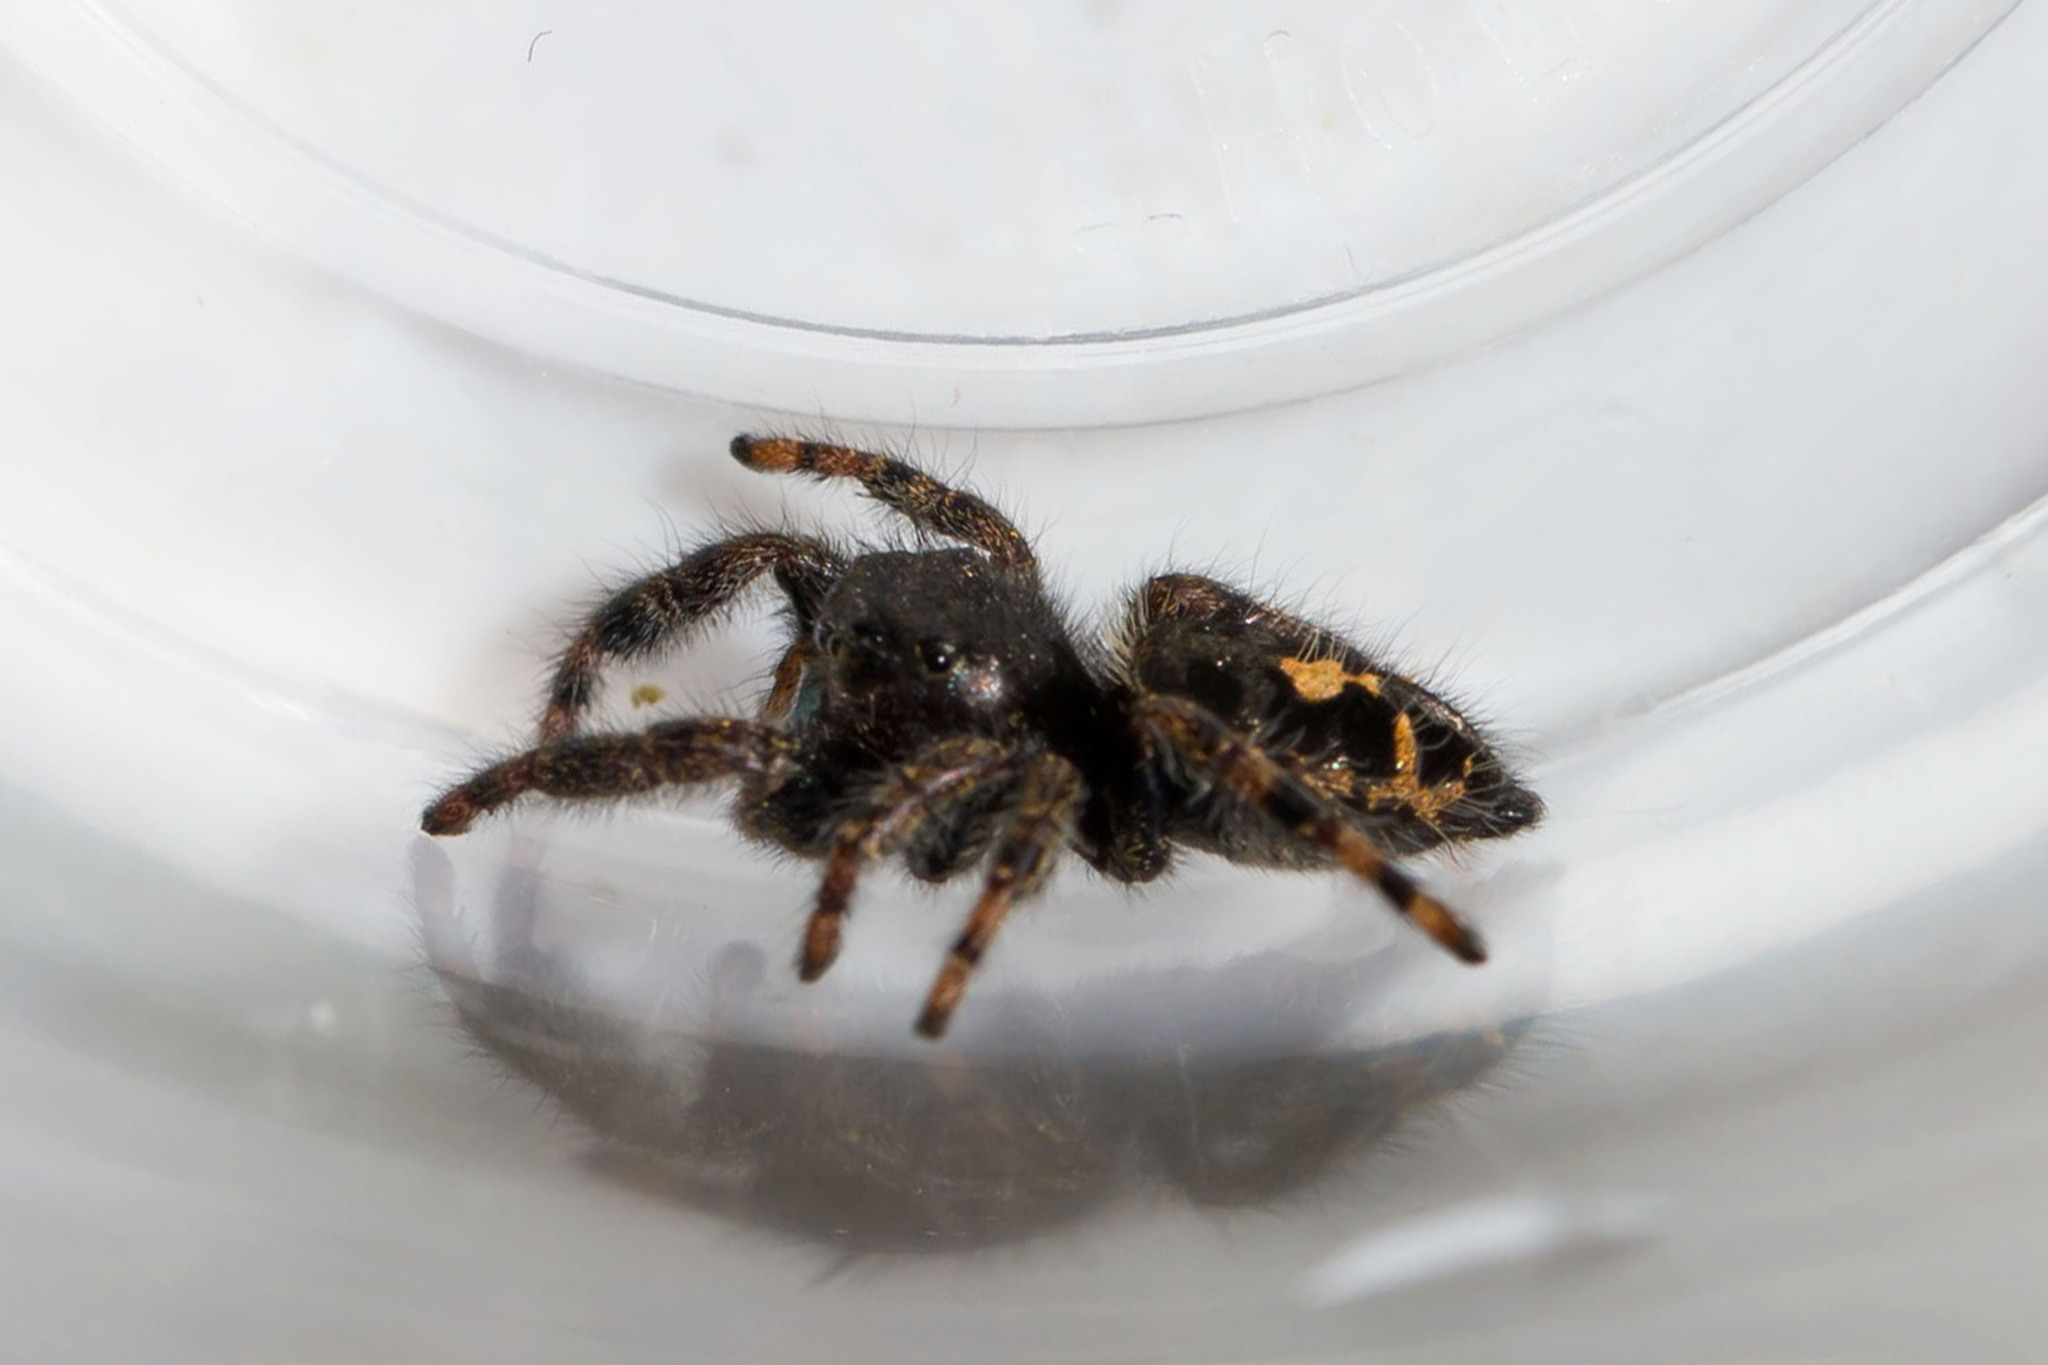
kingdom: Animalia
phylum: Arthropoda
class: Arachnida
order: Araneae
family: Salticidae
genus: Phidippus
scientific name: Phidippus audax
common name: Bold jumper
